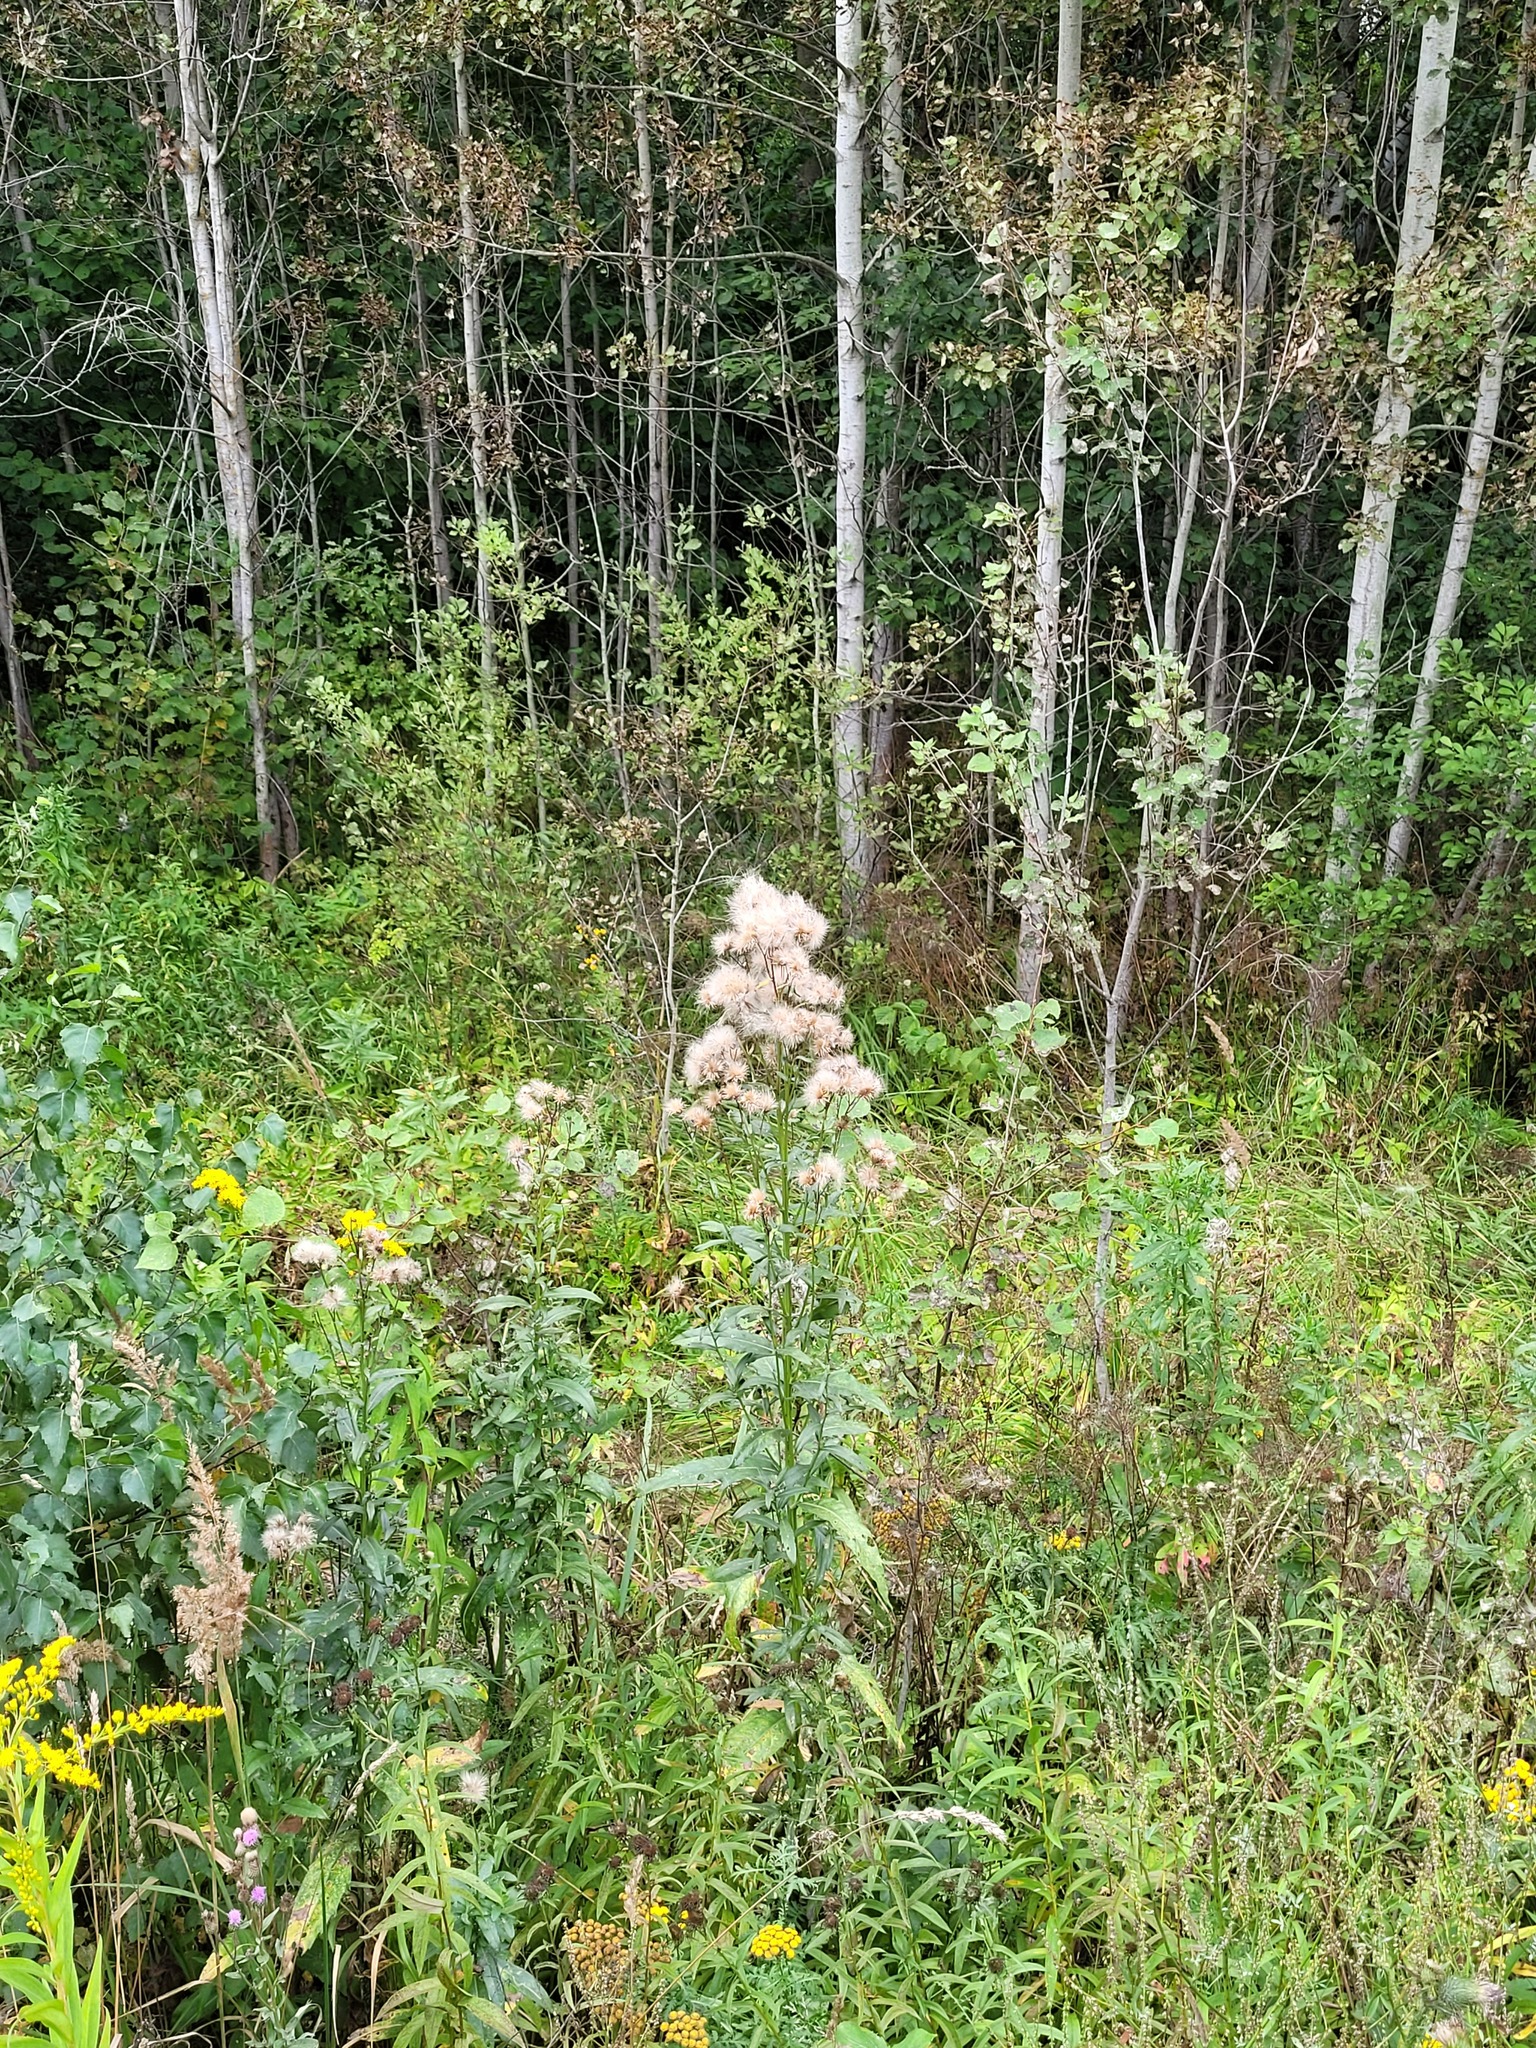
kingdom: Plantae
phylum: Tracheophyta
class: Magnoliopsida
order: Asterales
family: Asteraceae
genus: Cirsium
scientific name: Cirsium arvense
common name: Creeping thistle
